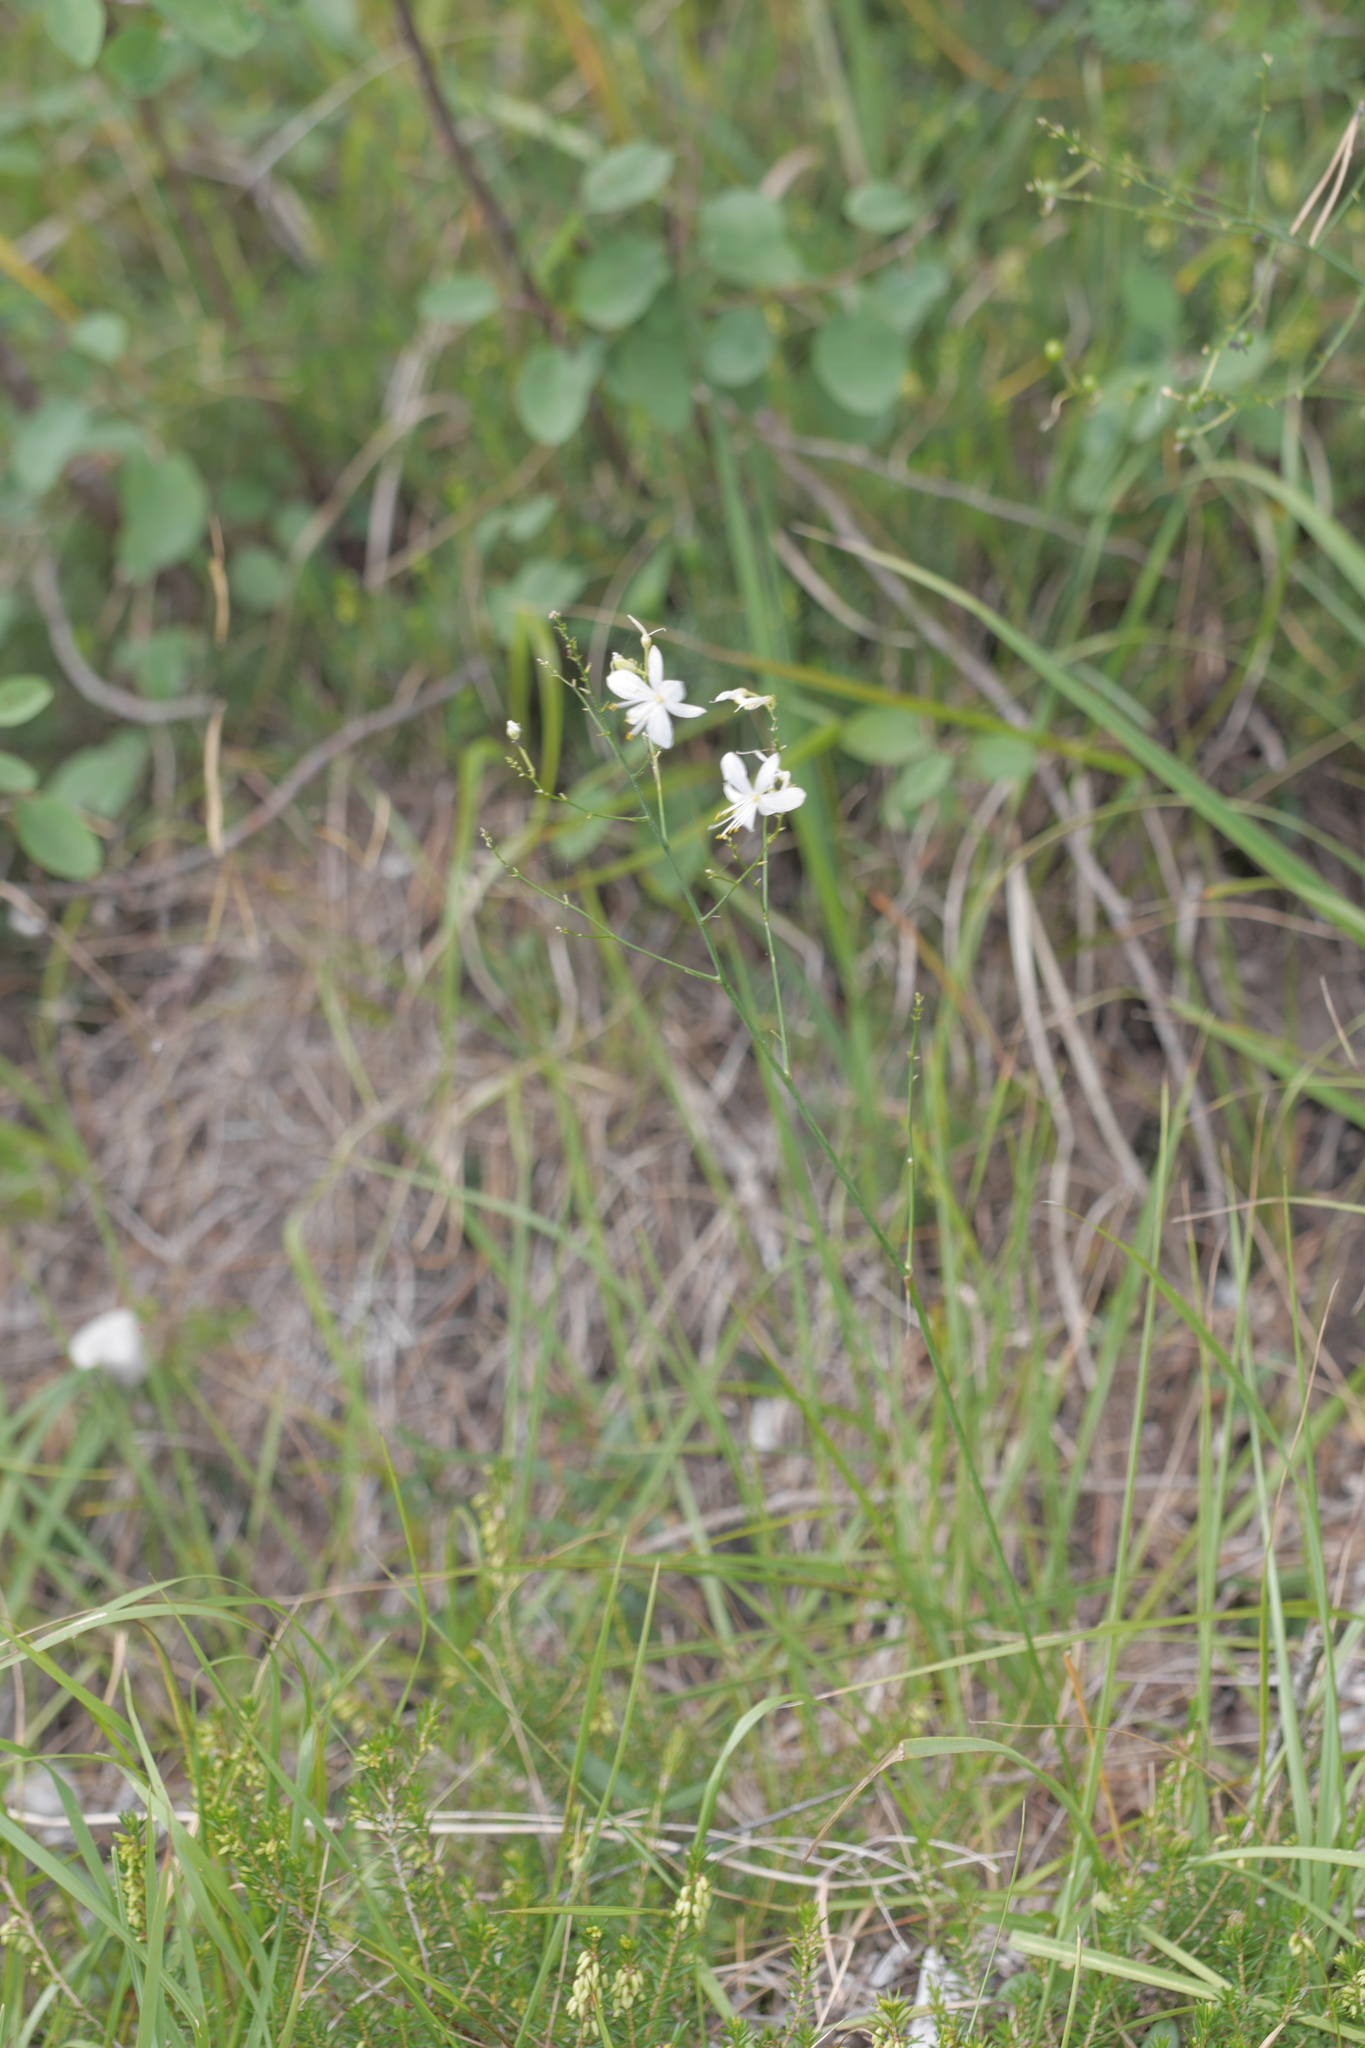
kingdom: Plantae
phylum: Tracheophyta
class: Liliopsida
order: Asparagales
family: Asparagaceae
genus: Anthericum
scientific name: Anthericum ramosum
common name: Branched st. bernard's-lily
